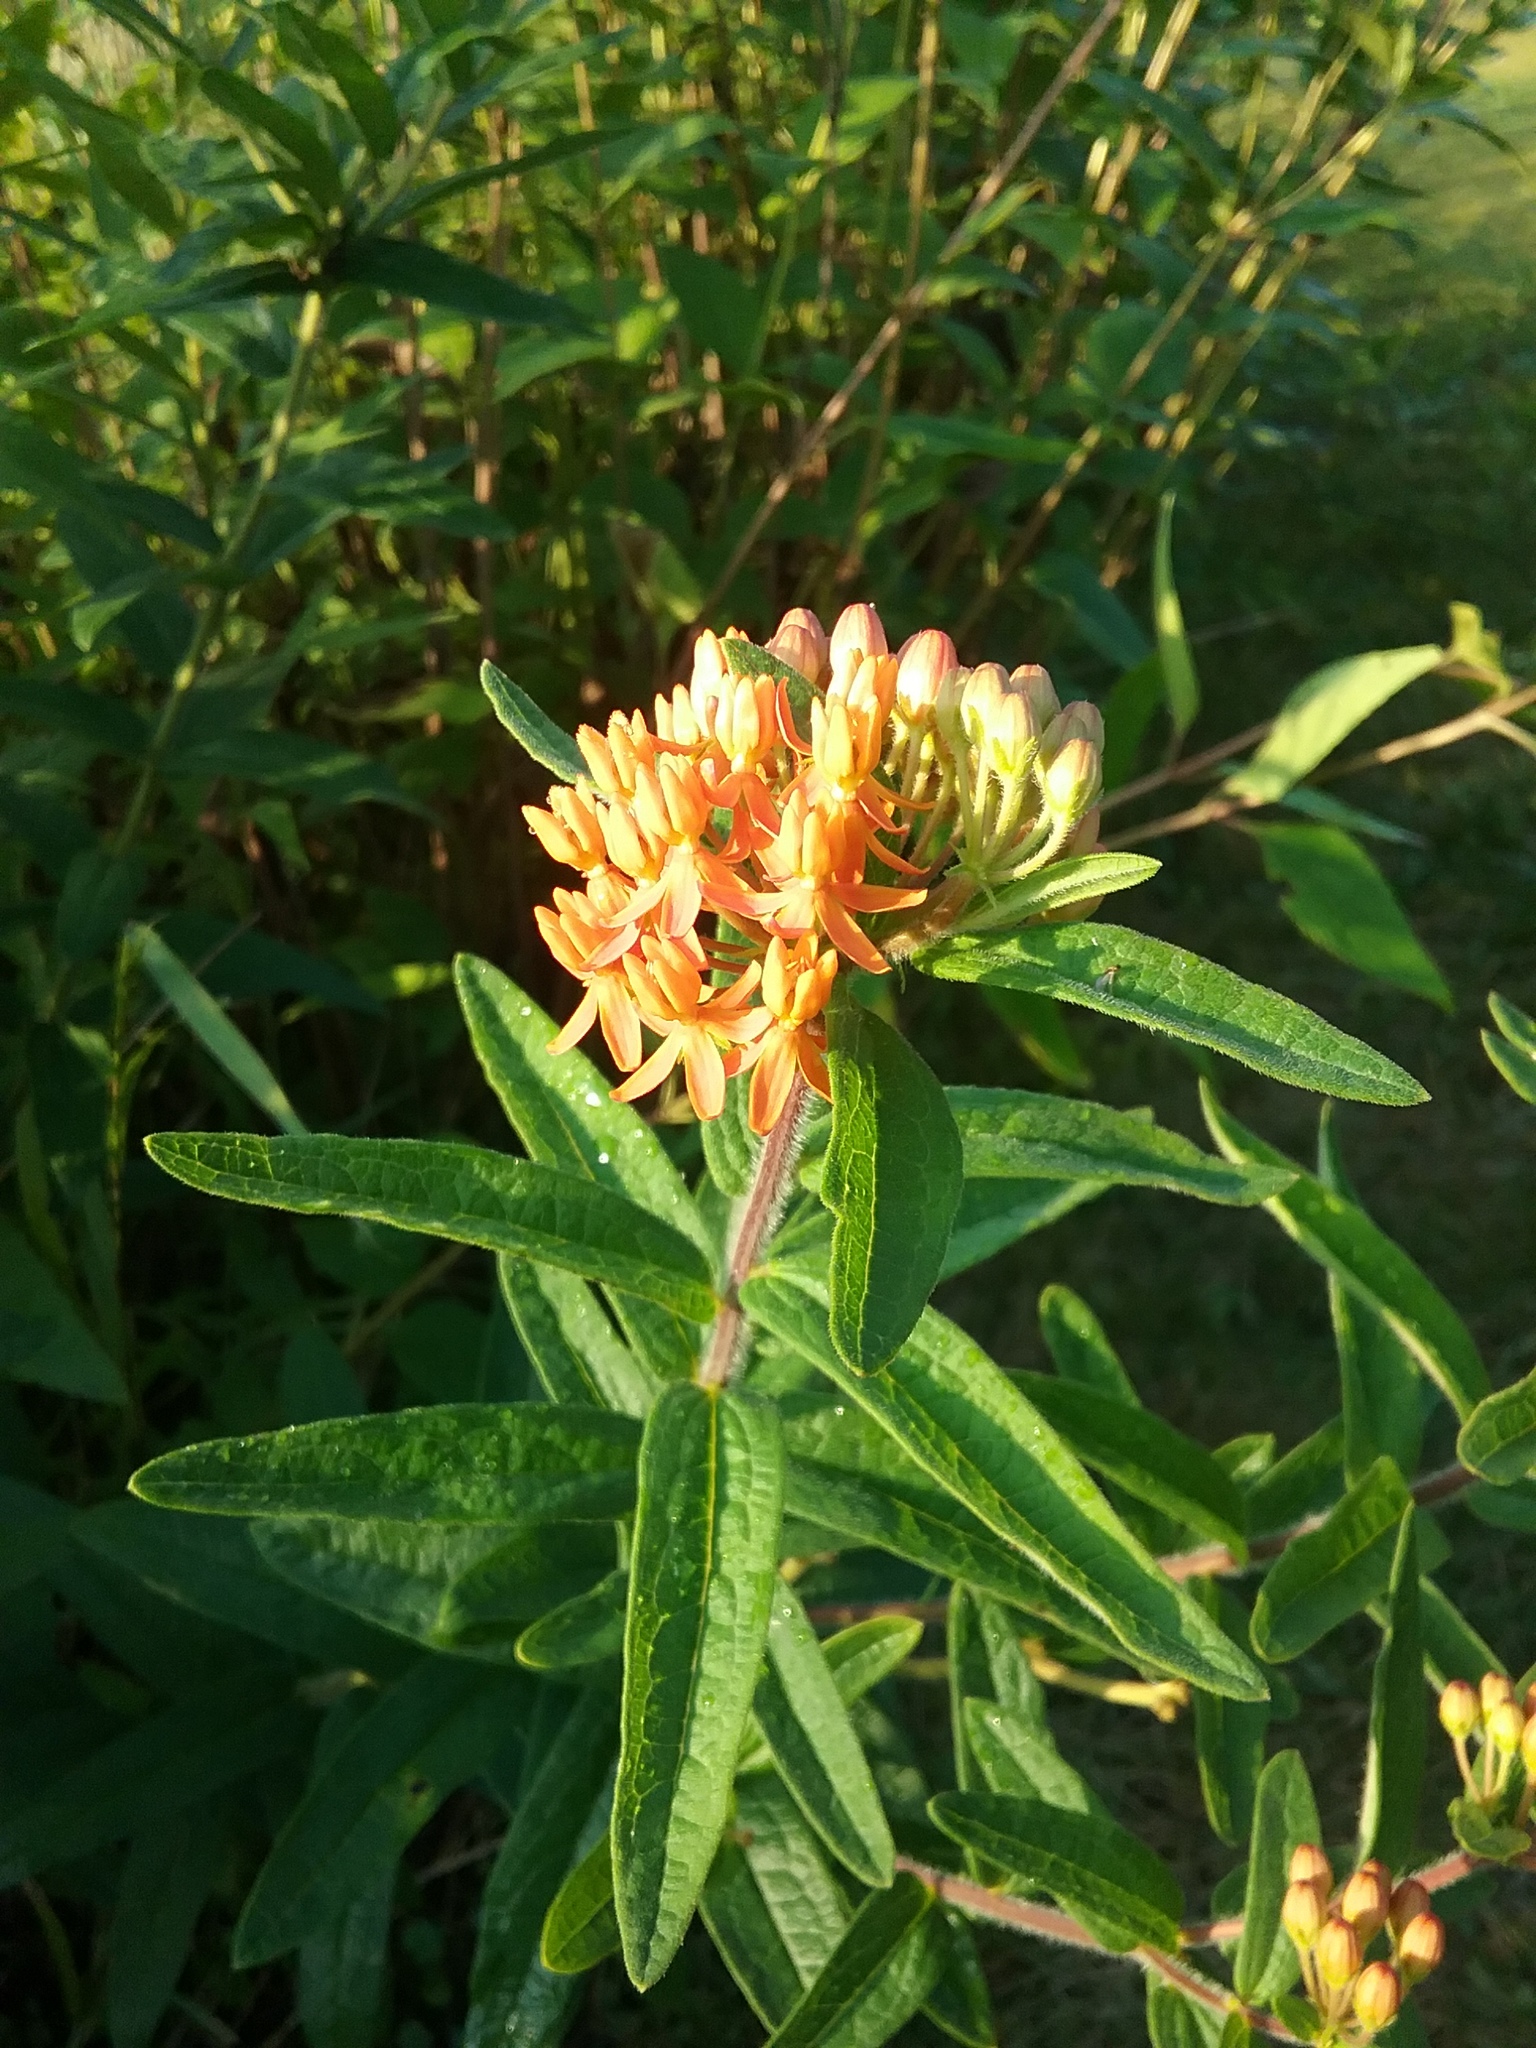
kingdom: Plantae
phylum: Tracheophyta
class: Magnoliopsida
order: Gentianales
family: Apocynaceae
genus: Asclepias
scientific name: Asclepias tuberosa
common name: Butterfly milkweed
